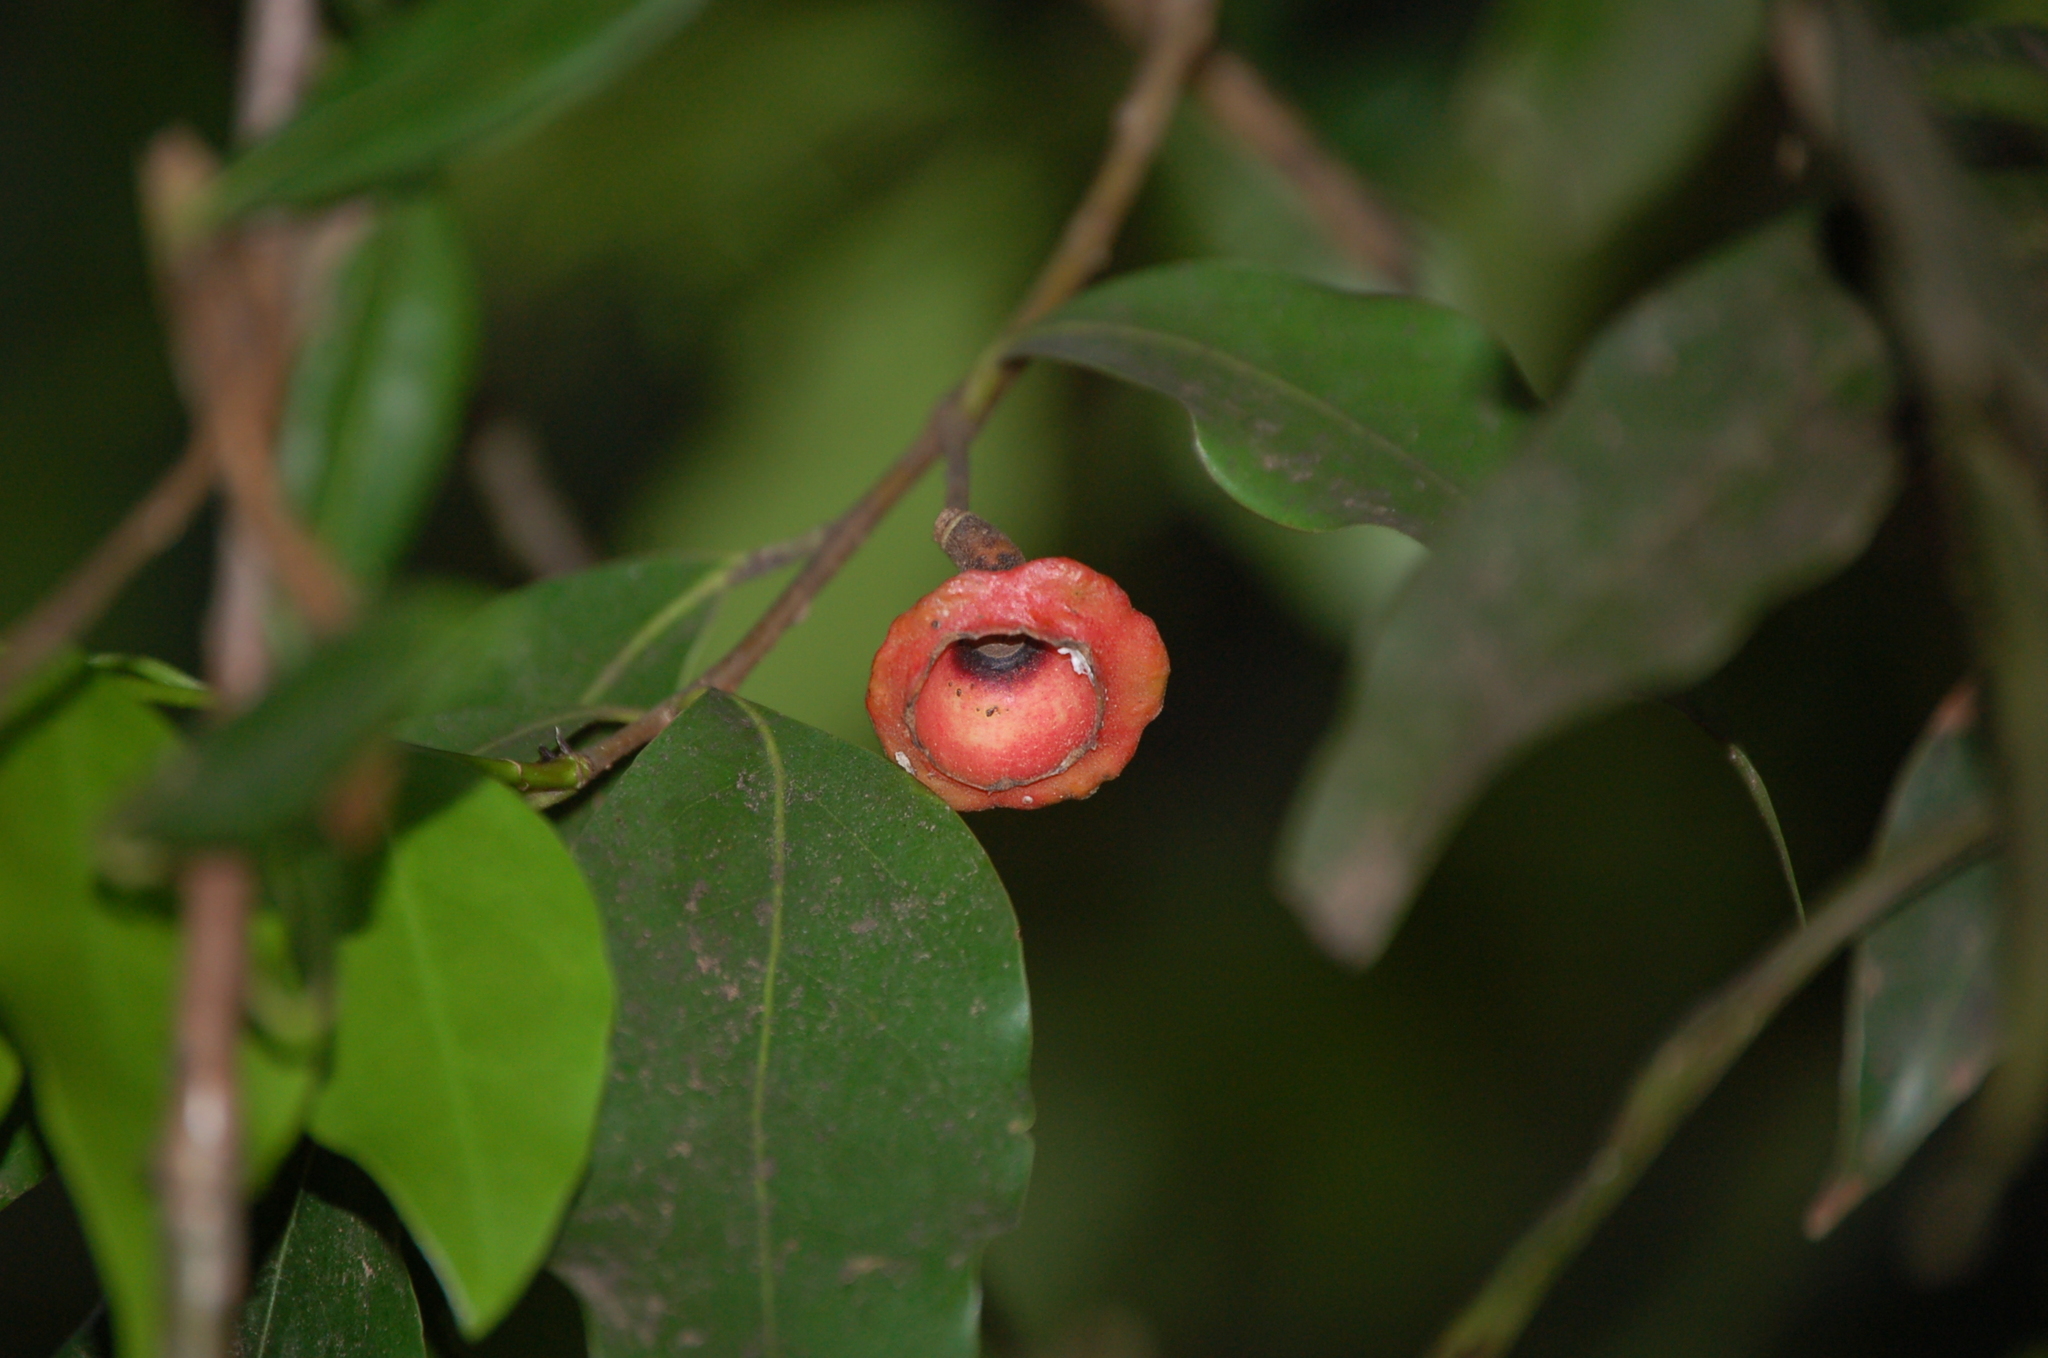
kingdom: Plantae
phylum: Tracheophyta
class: Magnoliopsida
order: Laurales
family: Lauraceae
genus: Licaria
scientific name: Licaria misantlae
